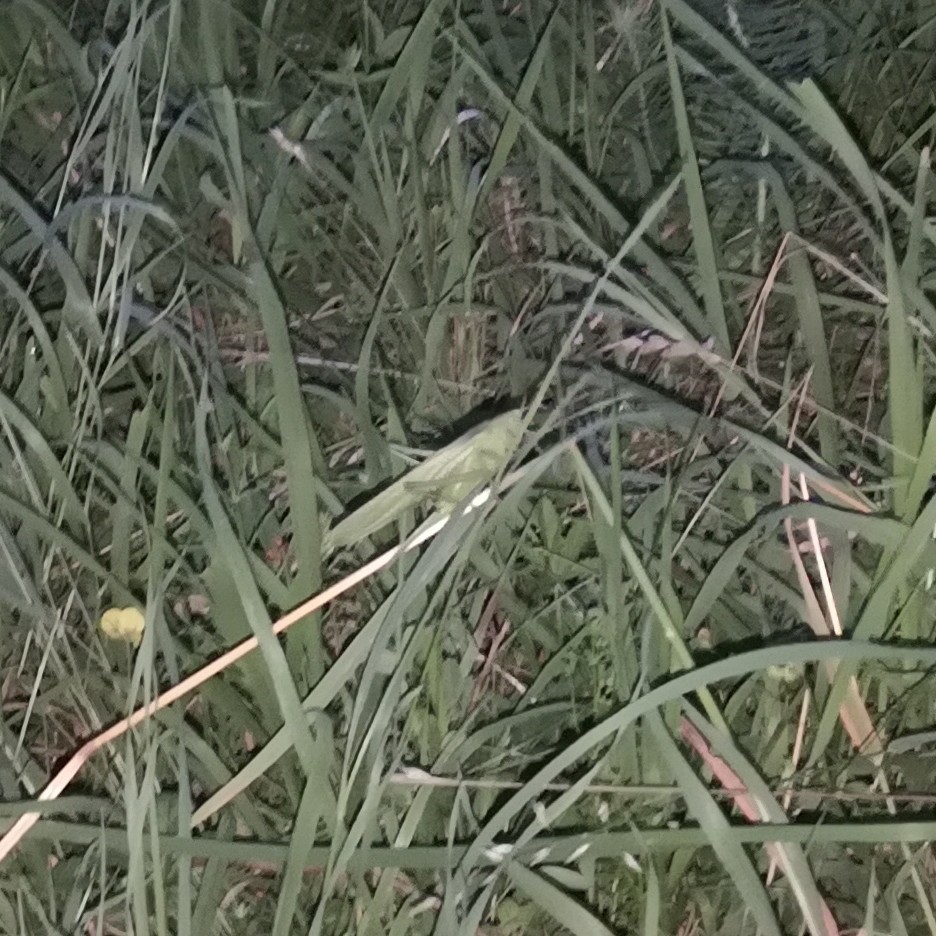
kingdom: Animalia
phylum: Arthropoda
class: Insecta
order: Orthoptera
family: Tettigoniidae
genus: Tettigonia
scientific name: Tettigonia viridissima
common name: Great green bush-cricket
